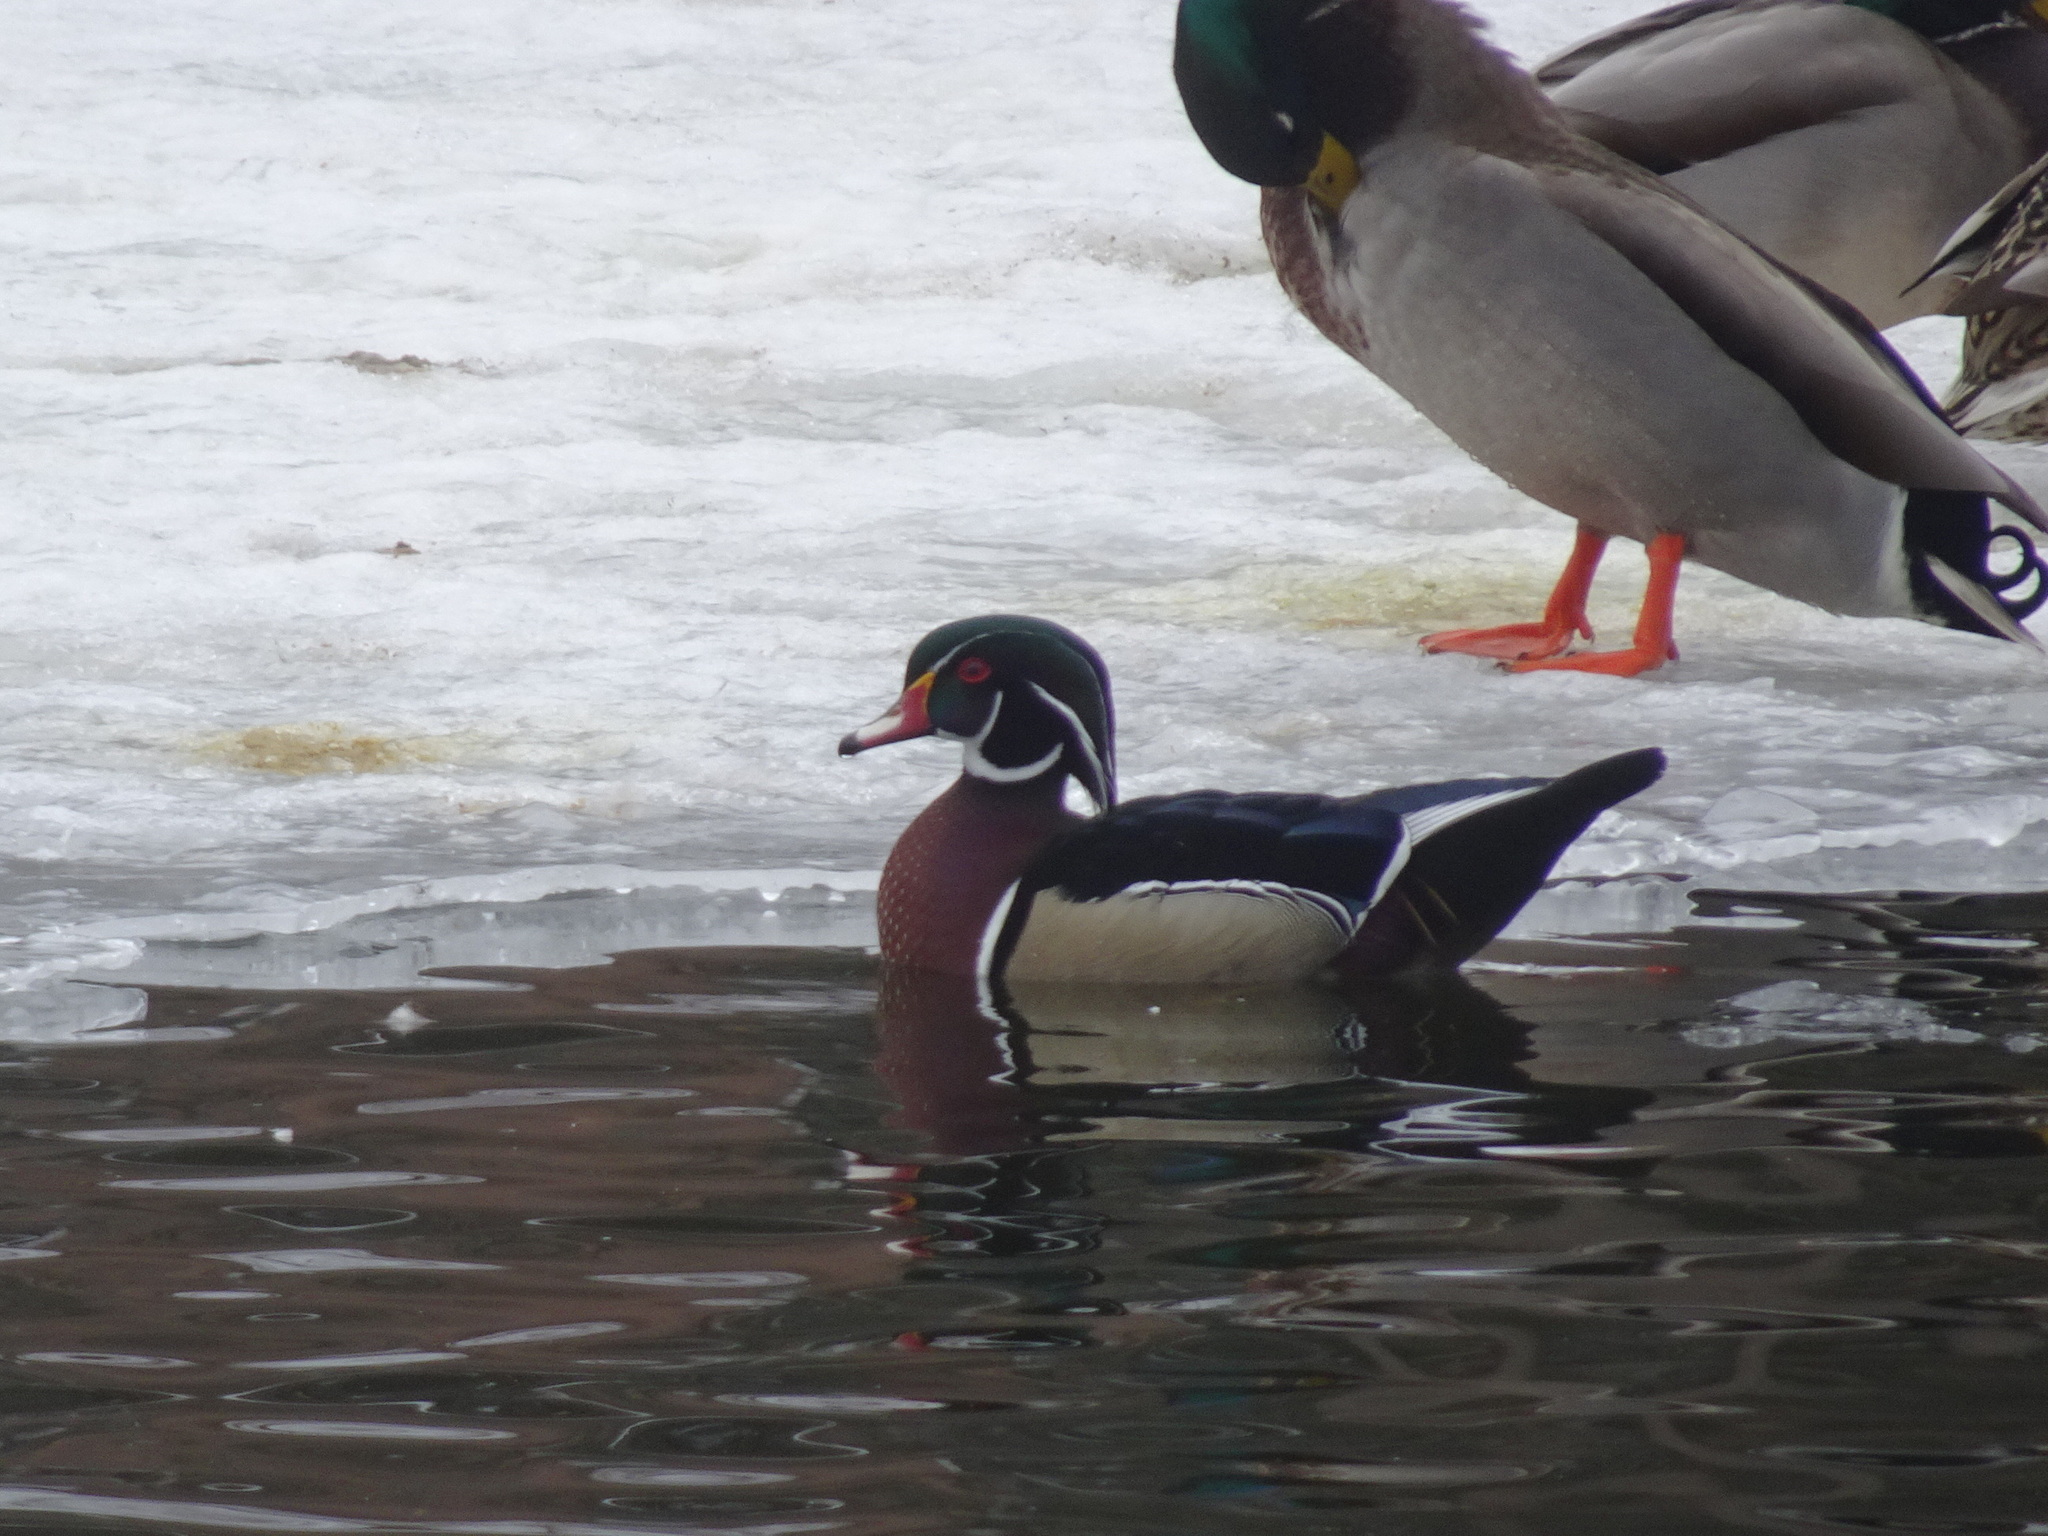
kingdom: Animalia
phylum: Chordata
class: Aves
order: Anseriformes
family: Anatidae
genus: Aix
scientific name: Aix sponsa
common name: Wood duck
